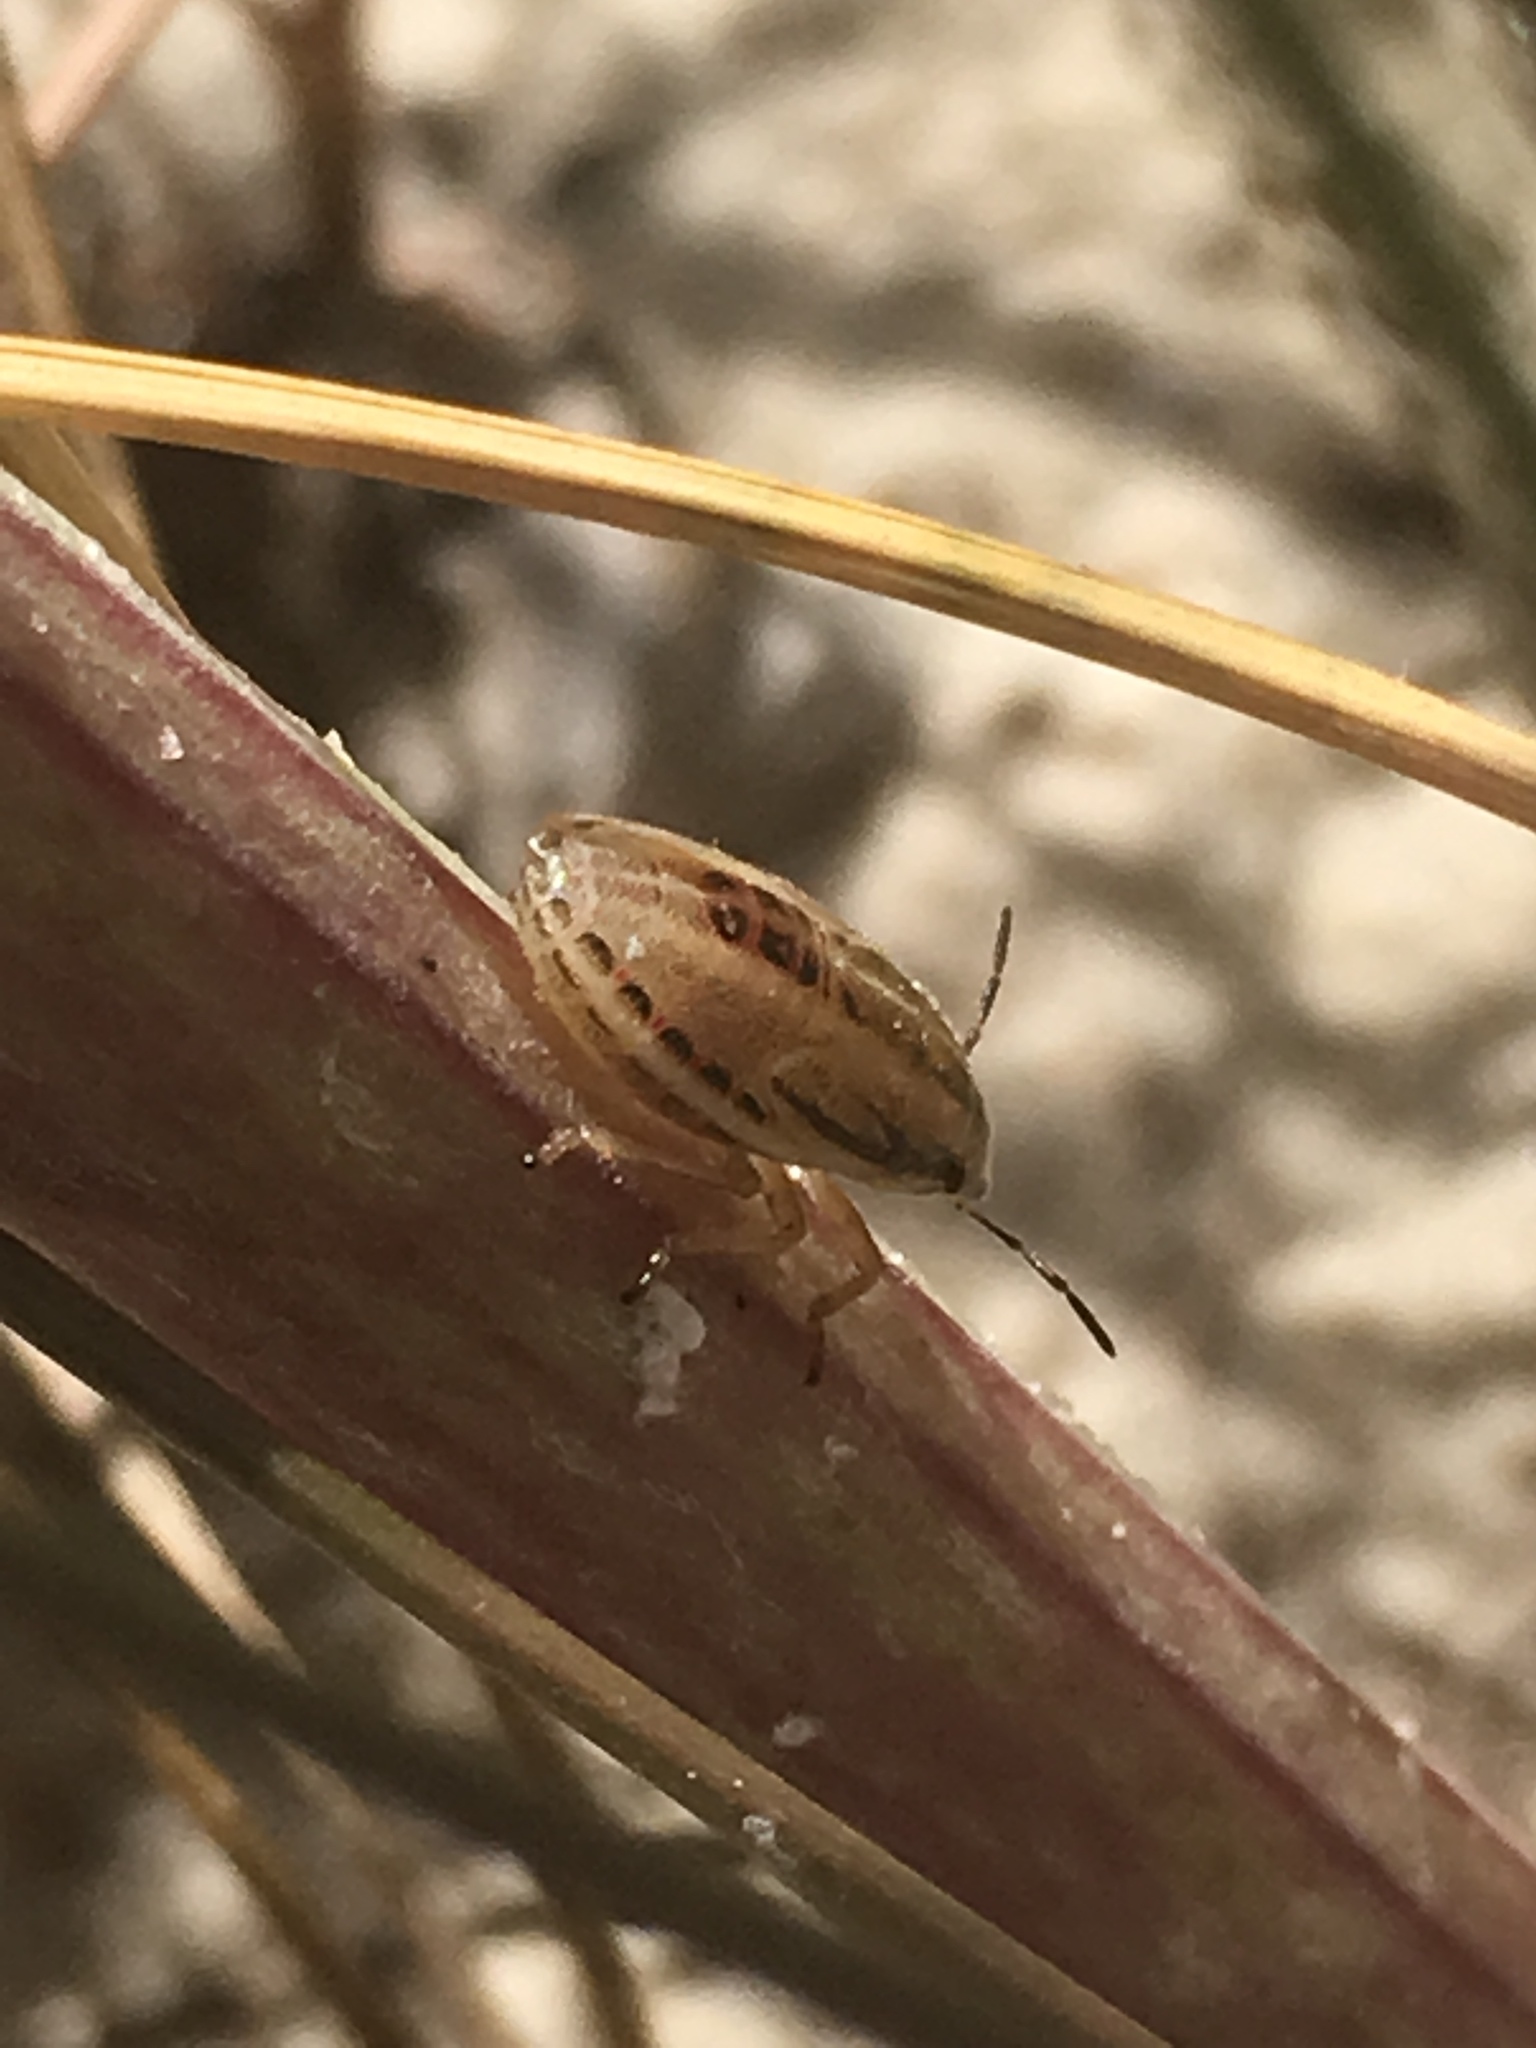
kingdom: Animalia
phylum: Arthropoda
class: Insecta
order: Hemiptera
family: Pentatomidae
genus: Aelia
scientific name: Aelia acuminata
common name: Bishop's mitre
